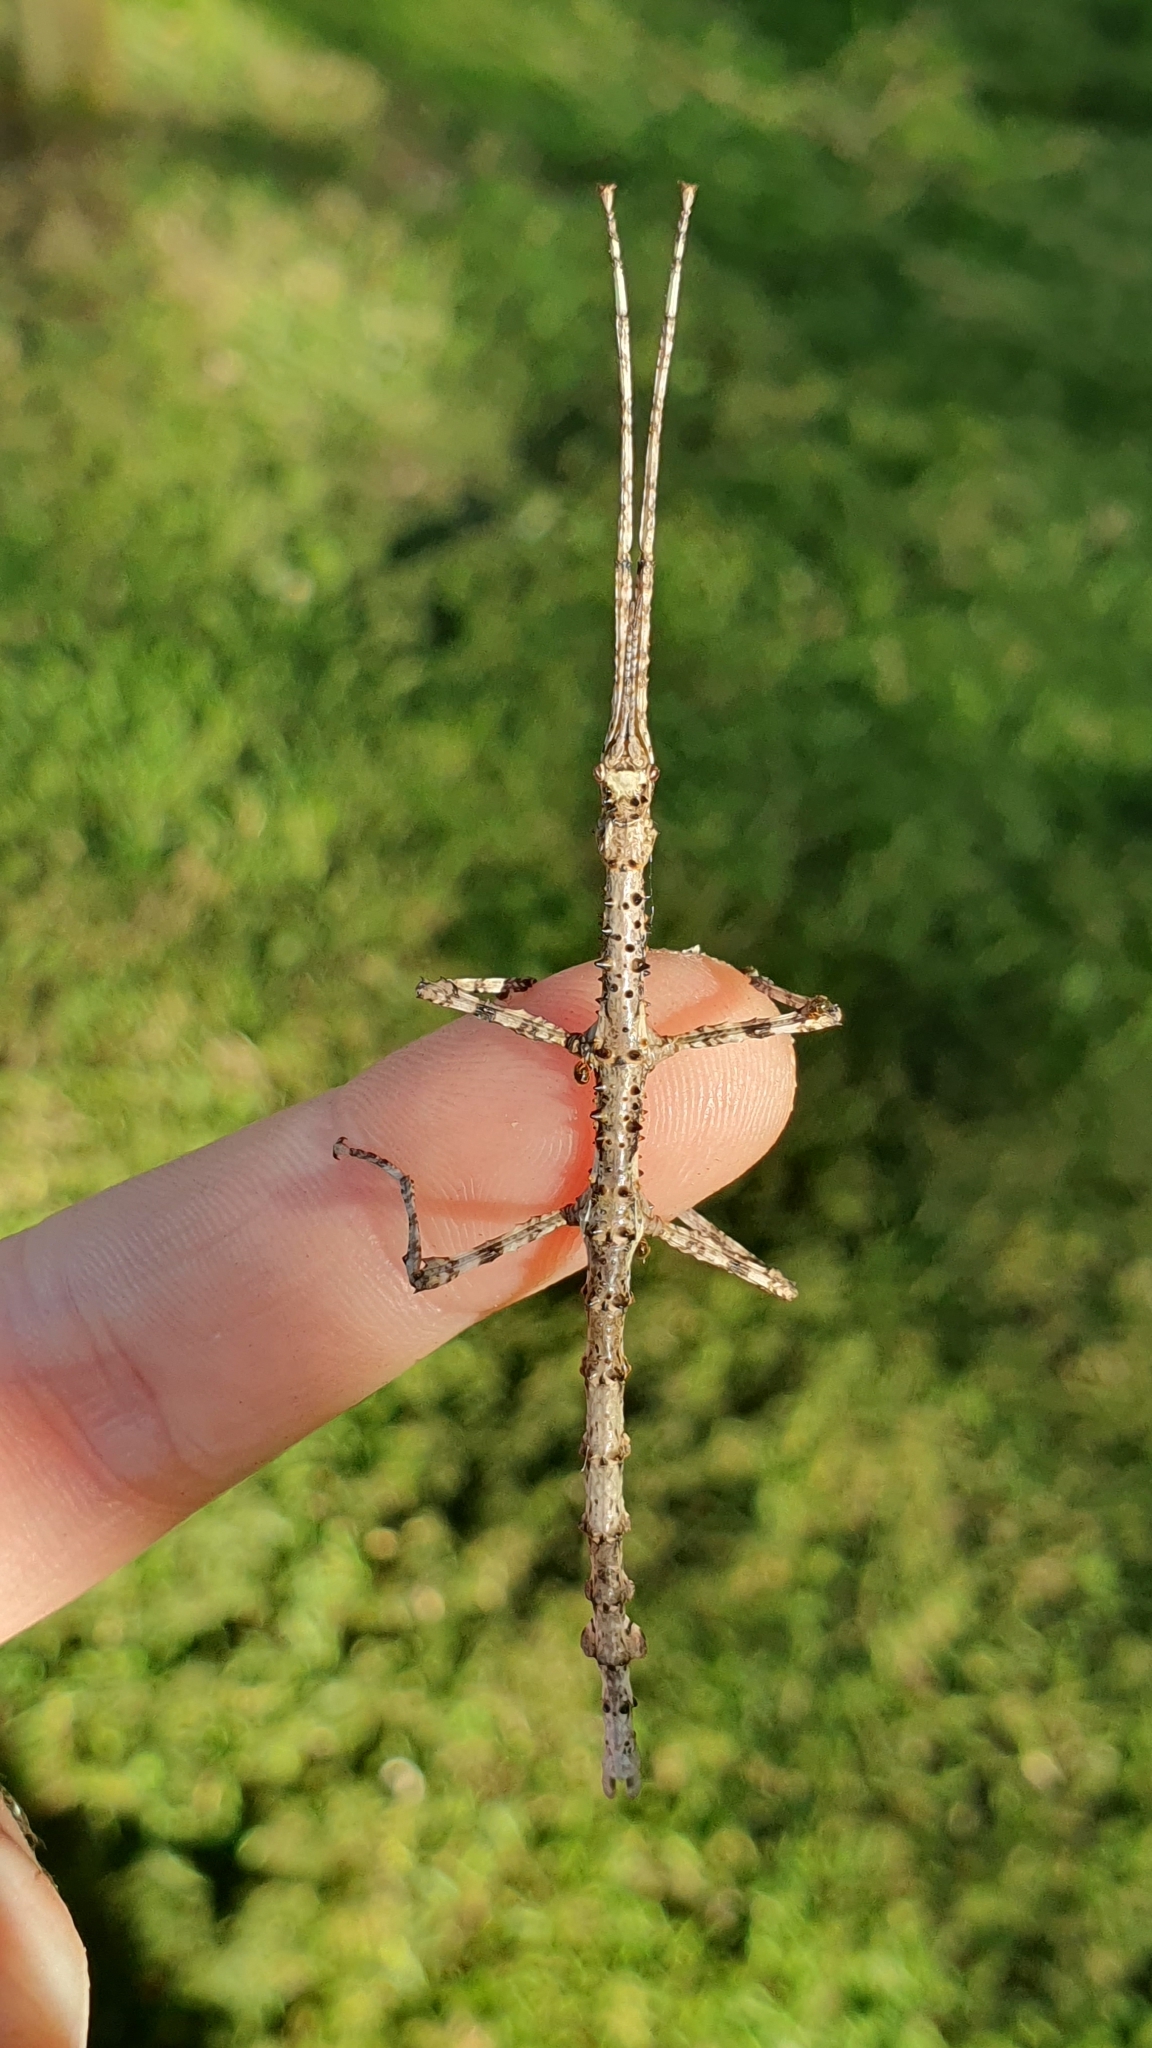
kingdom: Animalia
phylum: Arthropoda
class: Insecta
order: Phasmida
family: Phasmatidae
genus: Acanthoxyla
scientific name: Acanthoxyla prasina
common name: Black-spined stick insect
